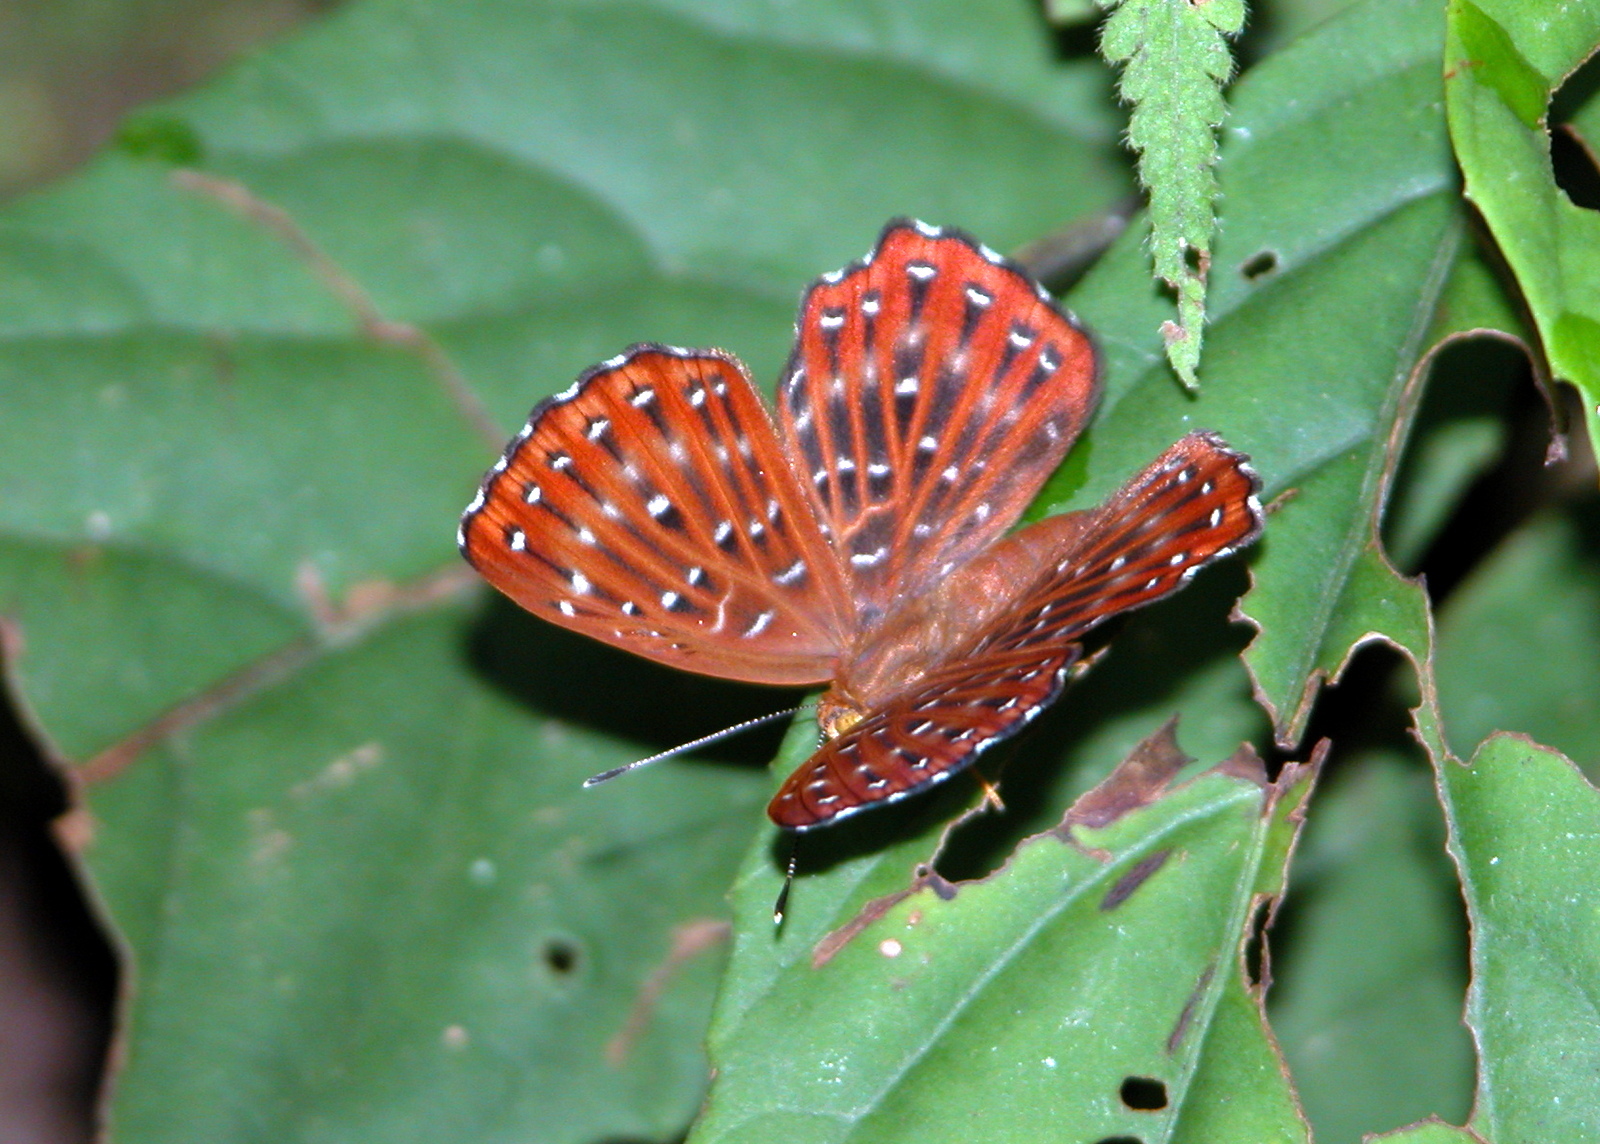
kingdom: Animalia
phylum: Arthropoda
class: Insecta
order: Lepidoptera
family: Riodinidae
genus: Zemeros
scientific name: Zemeros flegyas
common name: Punchinello
